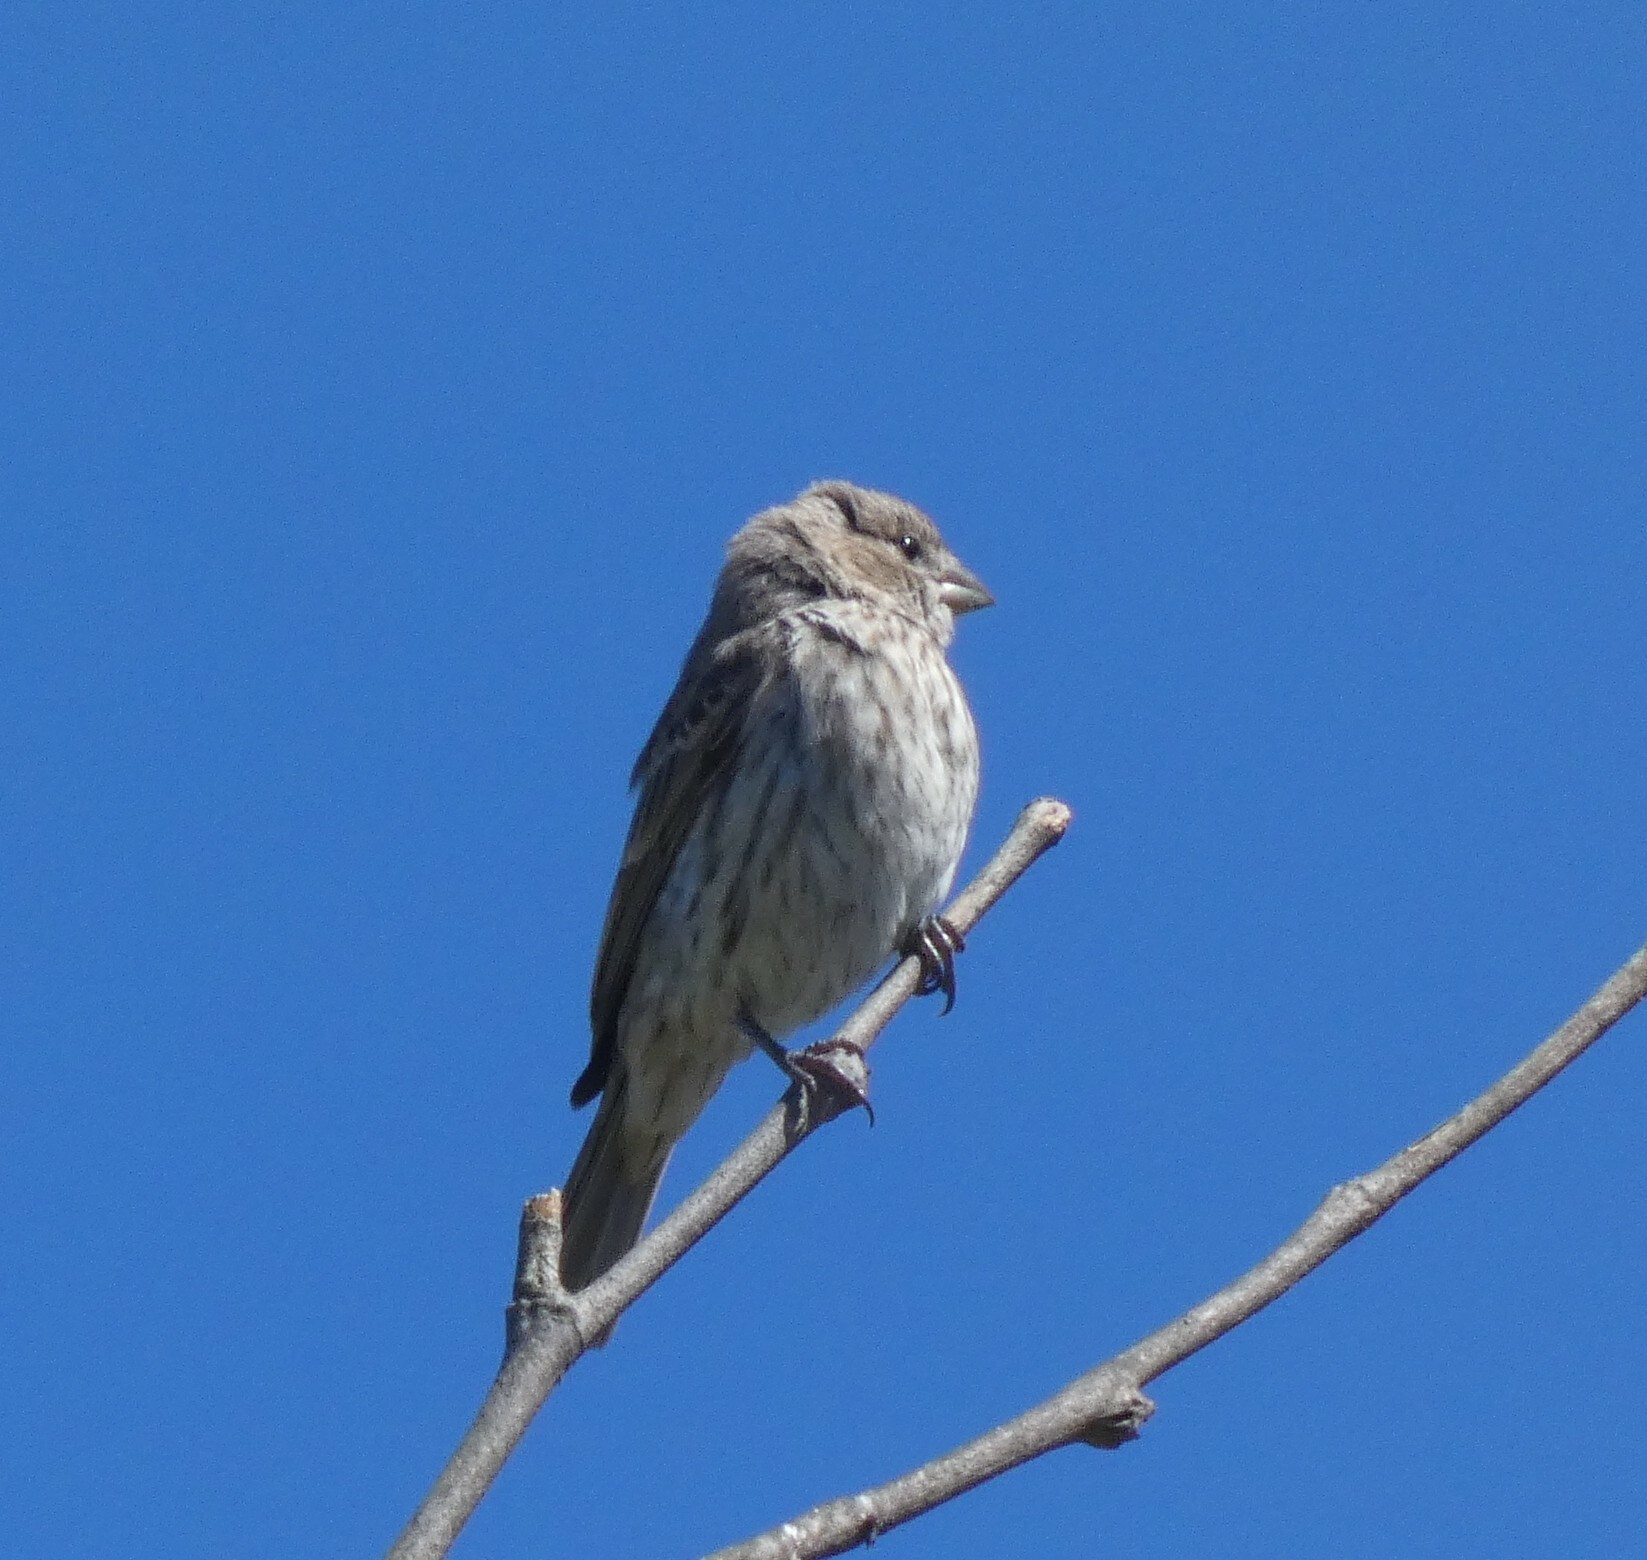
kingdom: Animalia
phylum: Chordata
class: Aves
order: Passeriformes
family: Fringillidae
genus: Haemorhous
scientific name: Haemorhous mexicanus
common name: House finch
